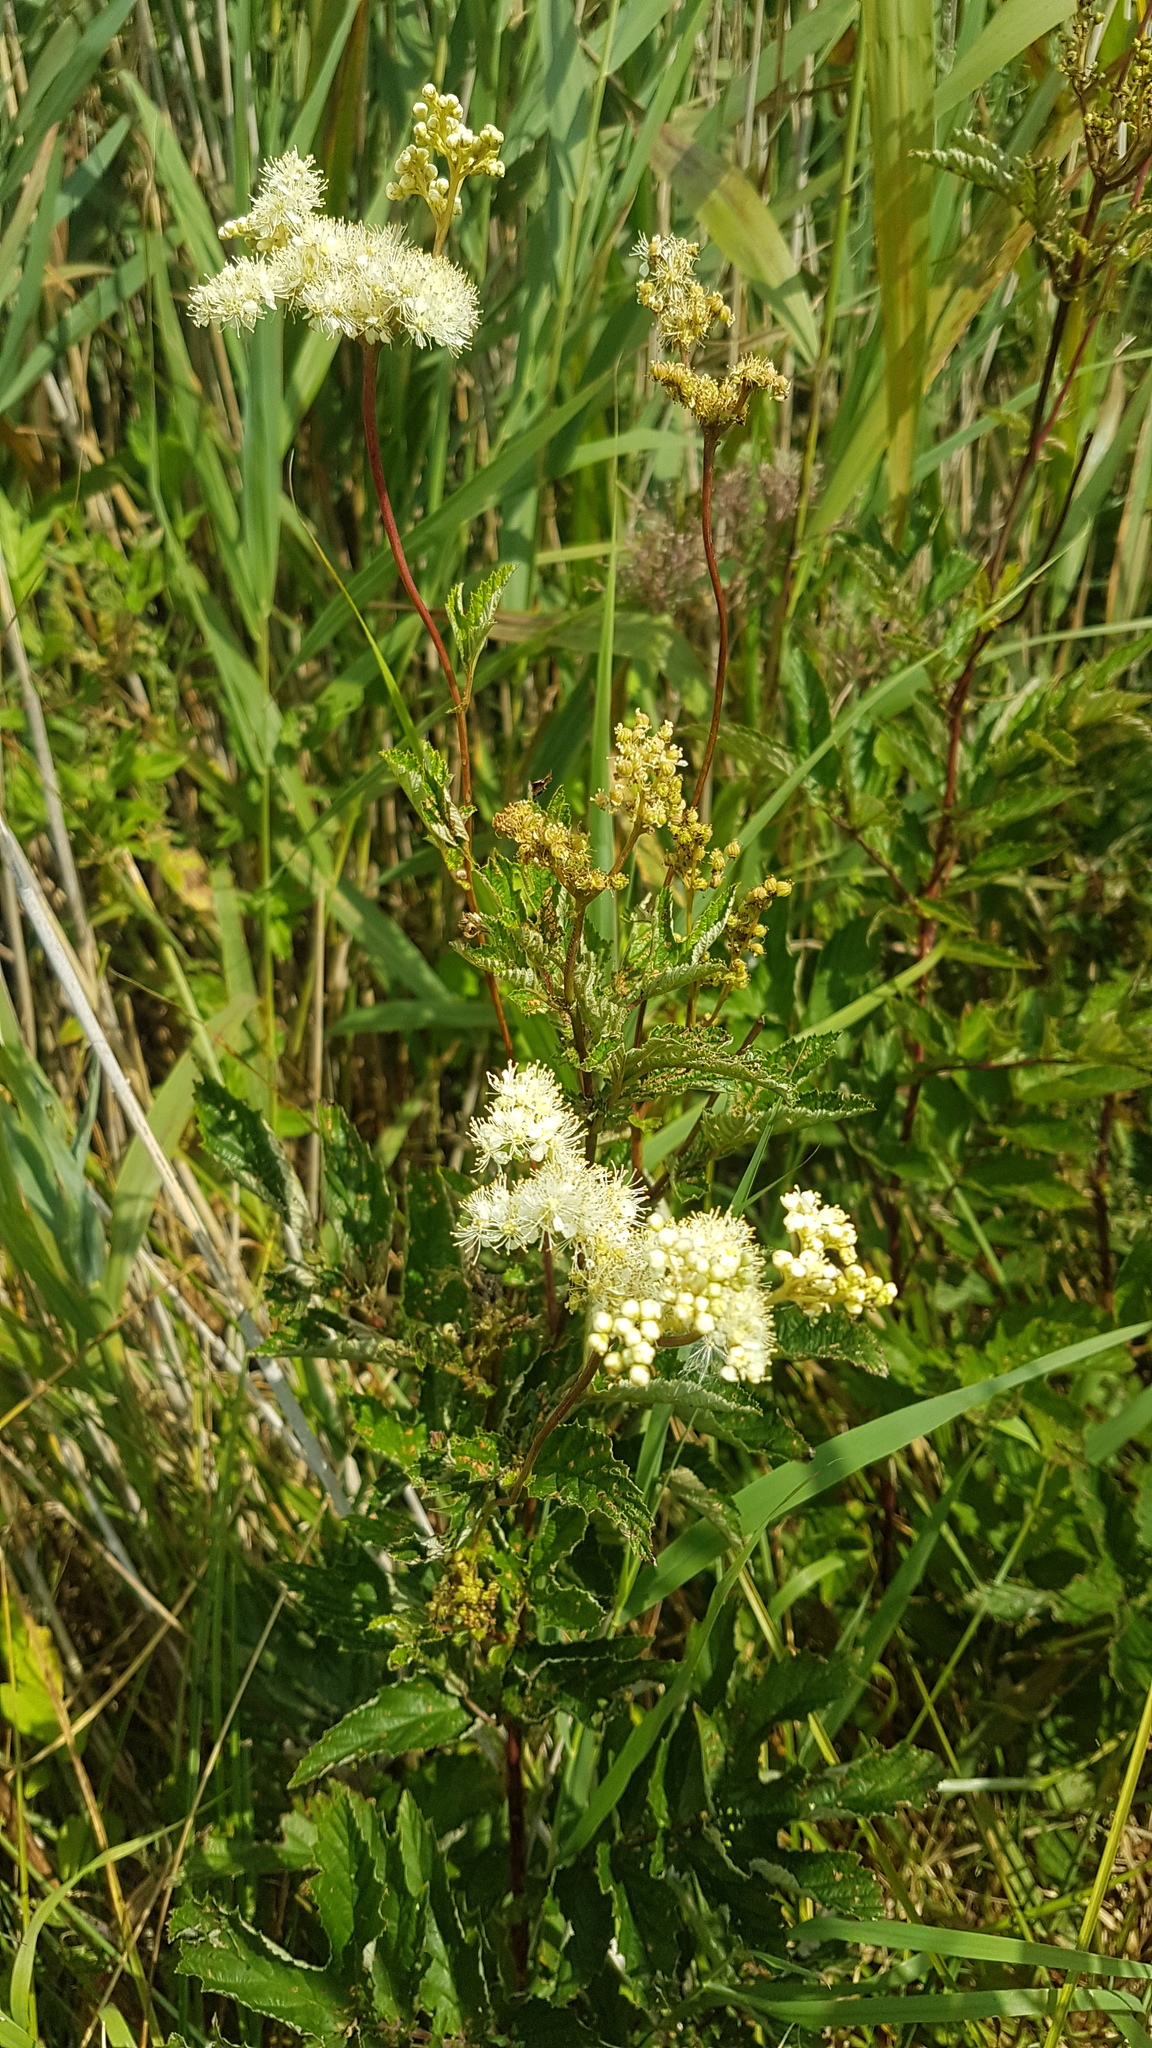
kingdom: Plantae
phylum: Tracheophyta
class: Magnoliopsida
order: Rosales
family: Rosaceae
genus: Filipendula
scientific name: Filipendula ulmaria
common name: Meadowsweet
